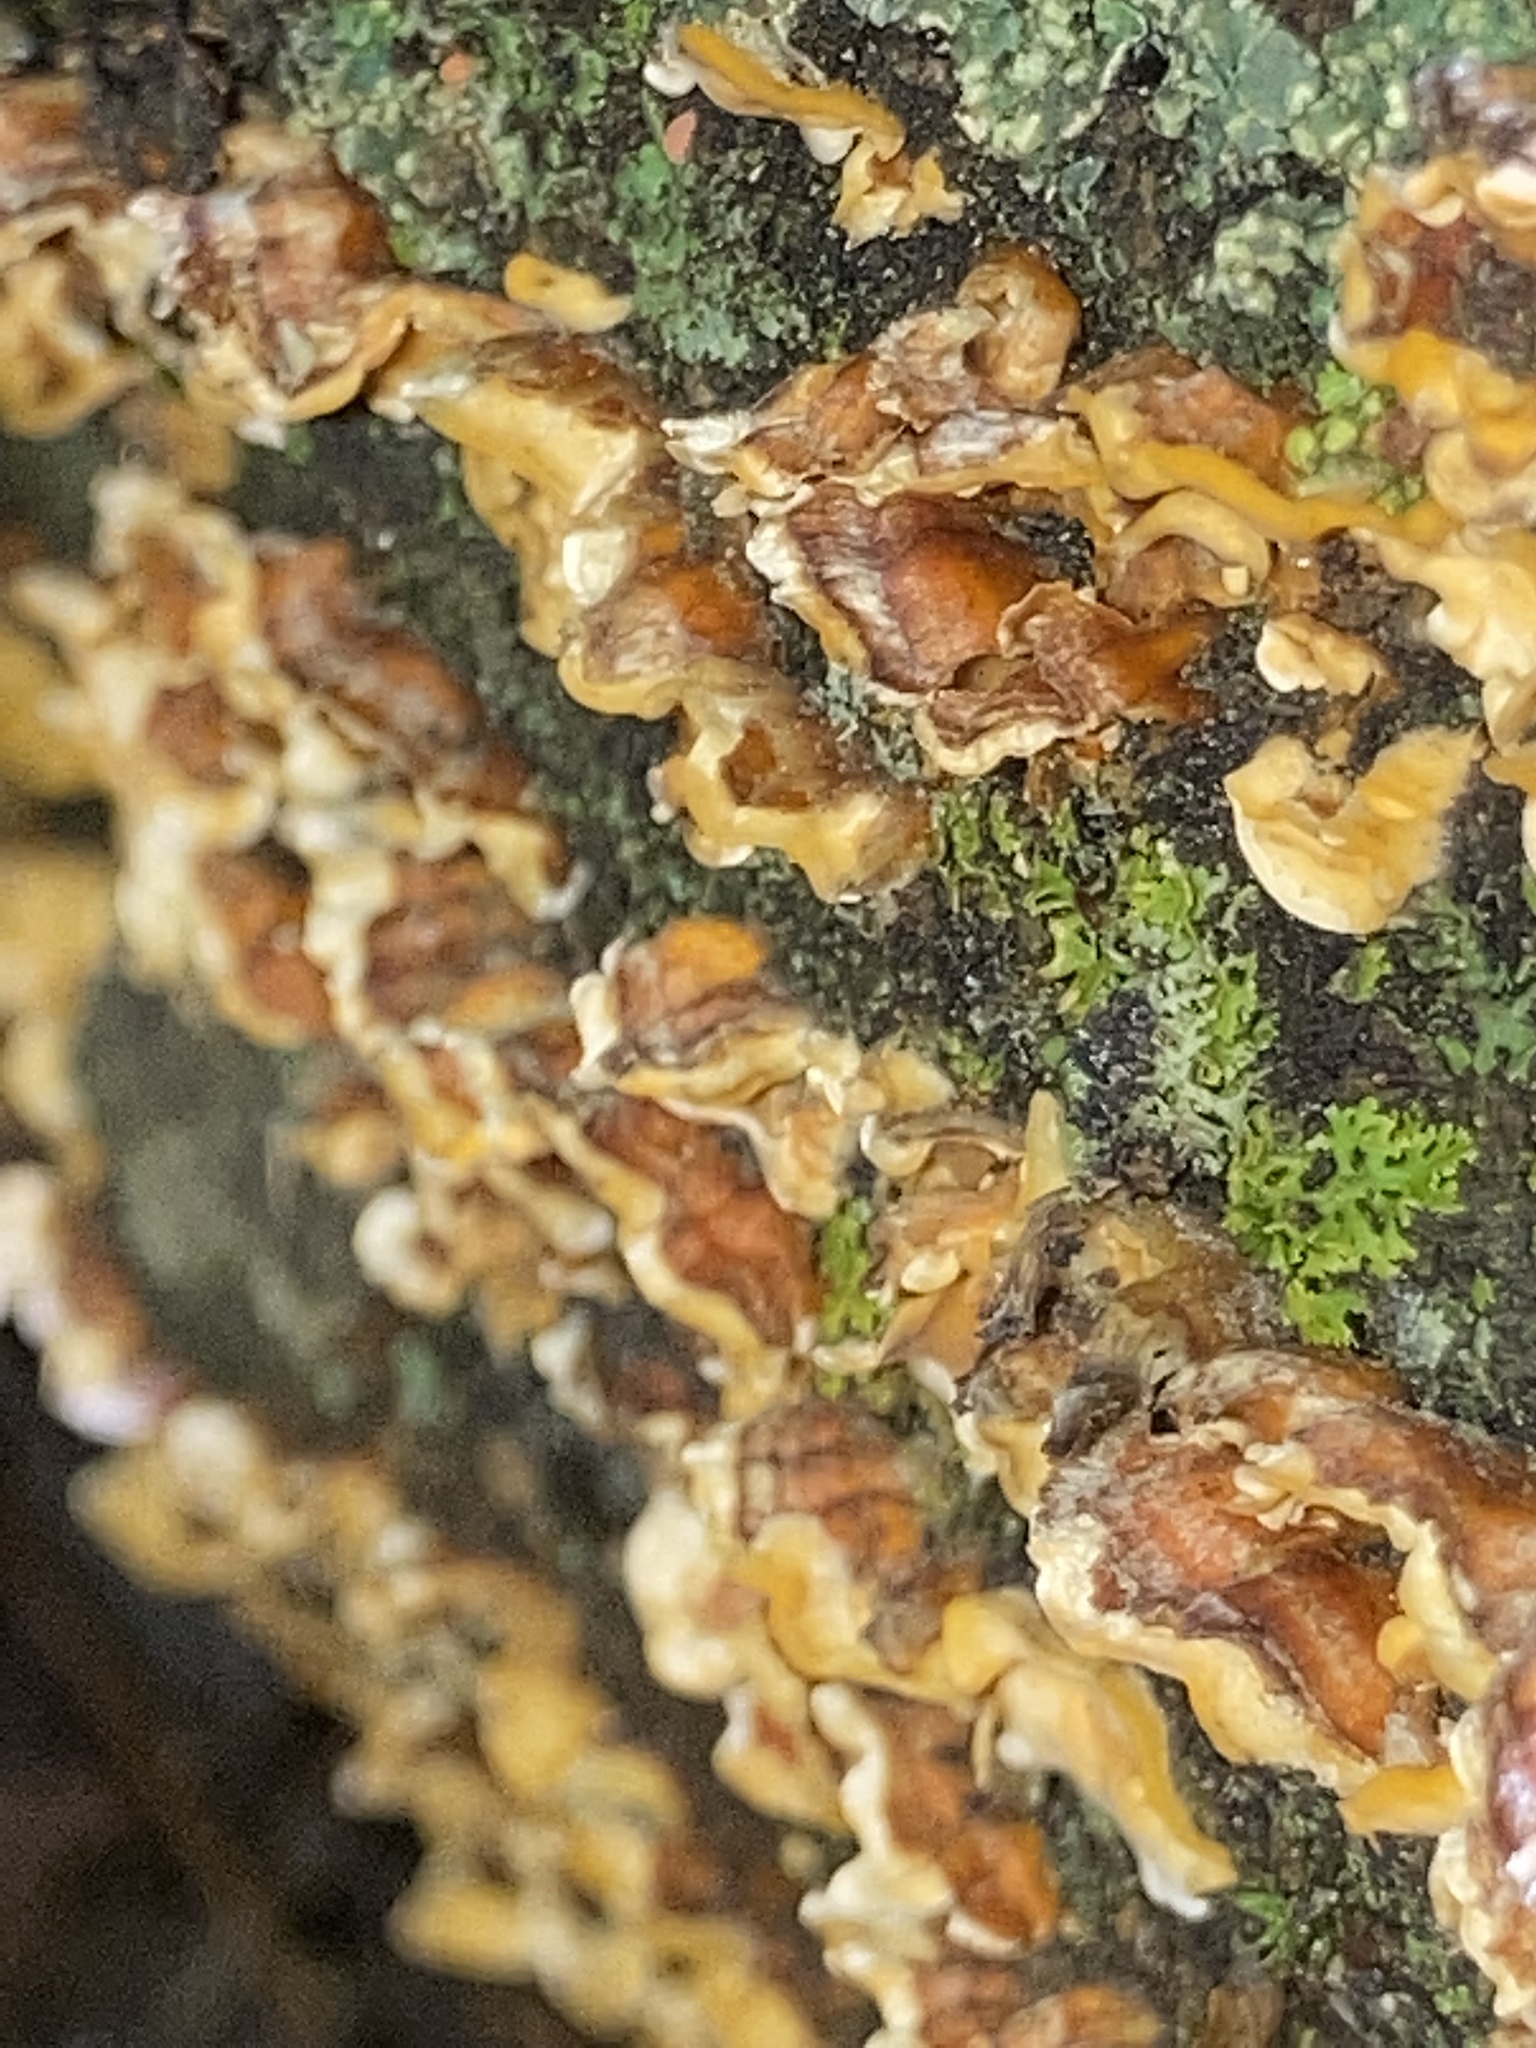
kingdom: Fungi
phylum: Basidiomycota
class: Agaricomycetes
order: Russulales
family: Stereaceae
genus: Stereum
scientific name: Stereum complicatum
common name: Crowded parchment
